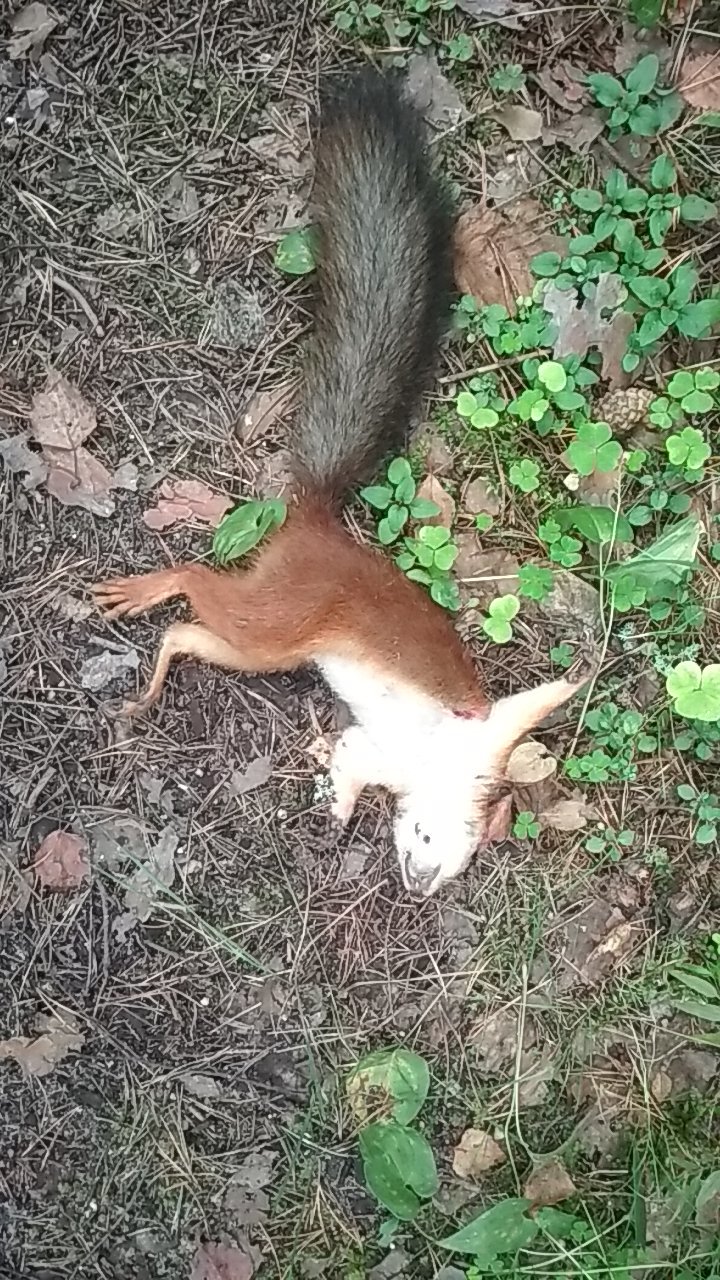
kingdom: Animalia
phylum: Chordata
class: Mammalia
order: Rodentia
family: Sciuridae
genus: Sciurus
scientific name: Sciurus vulgaris
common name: Eurasian red squirrel
